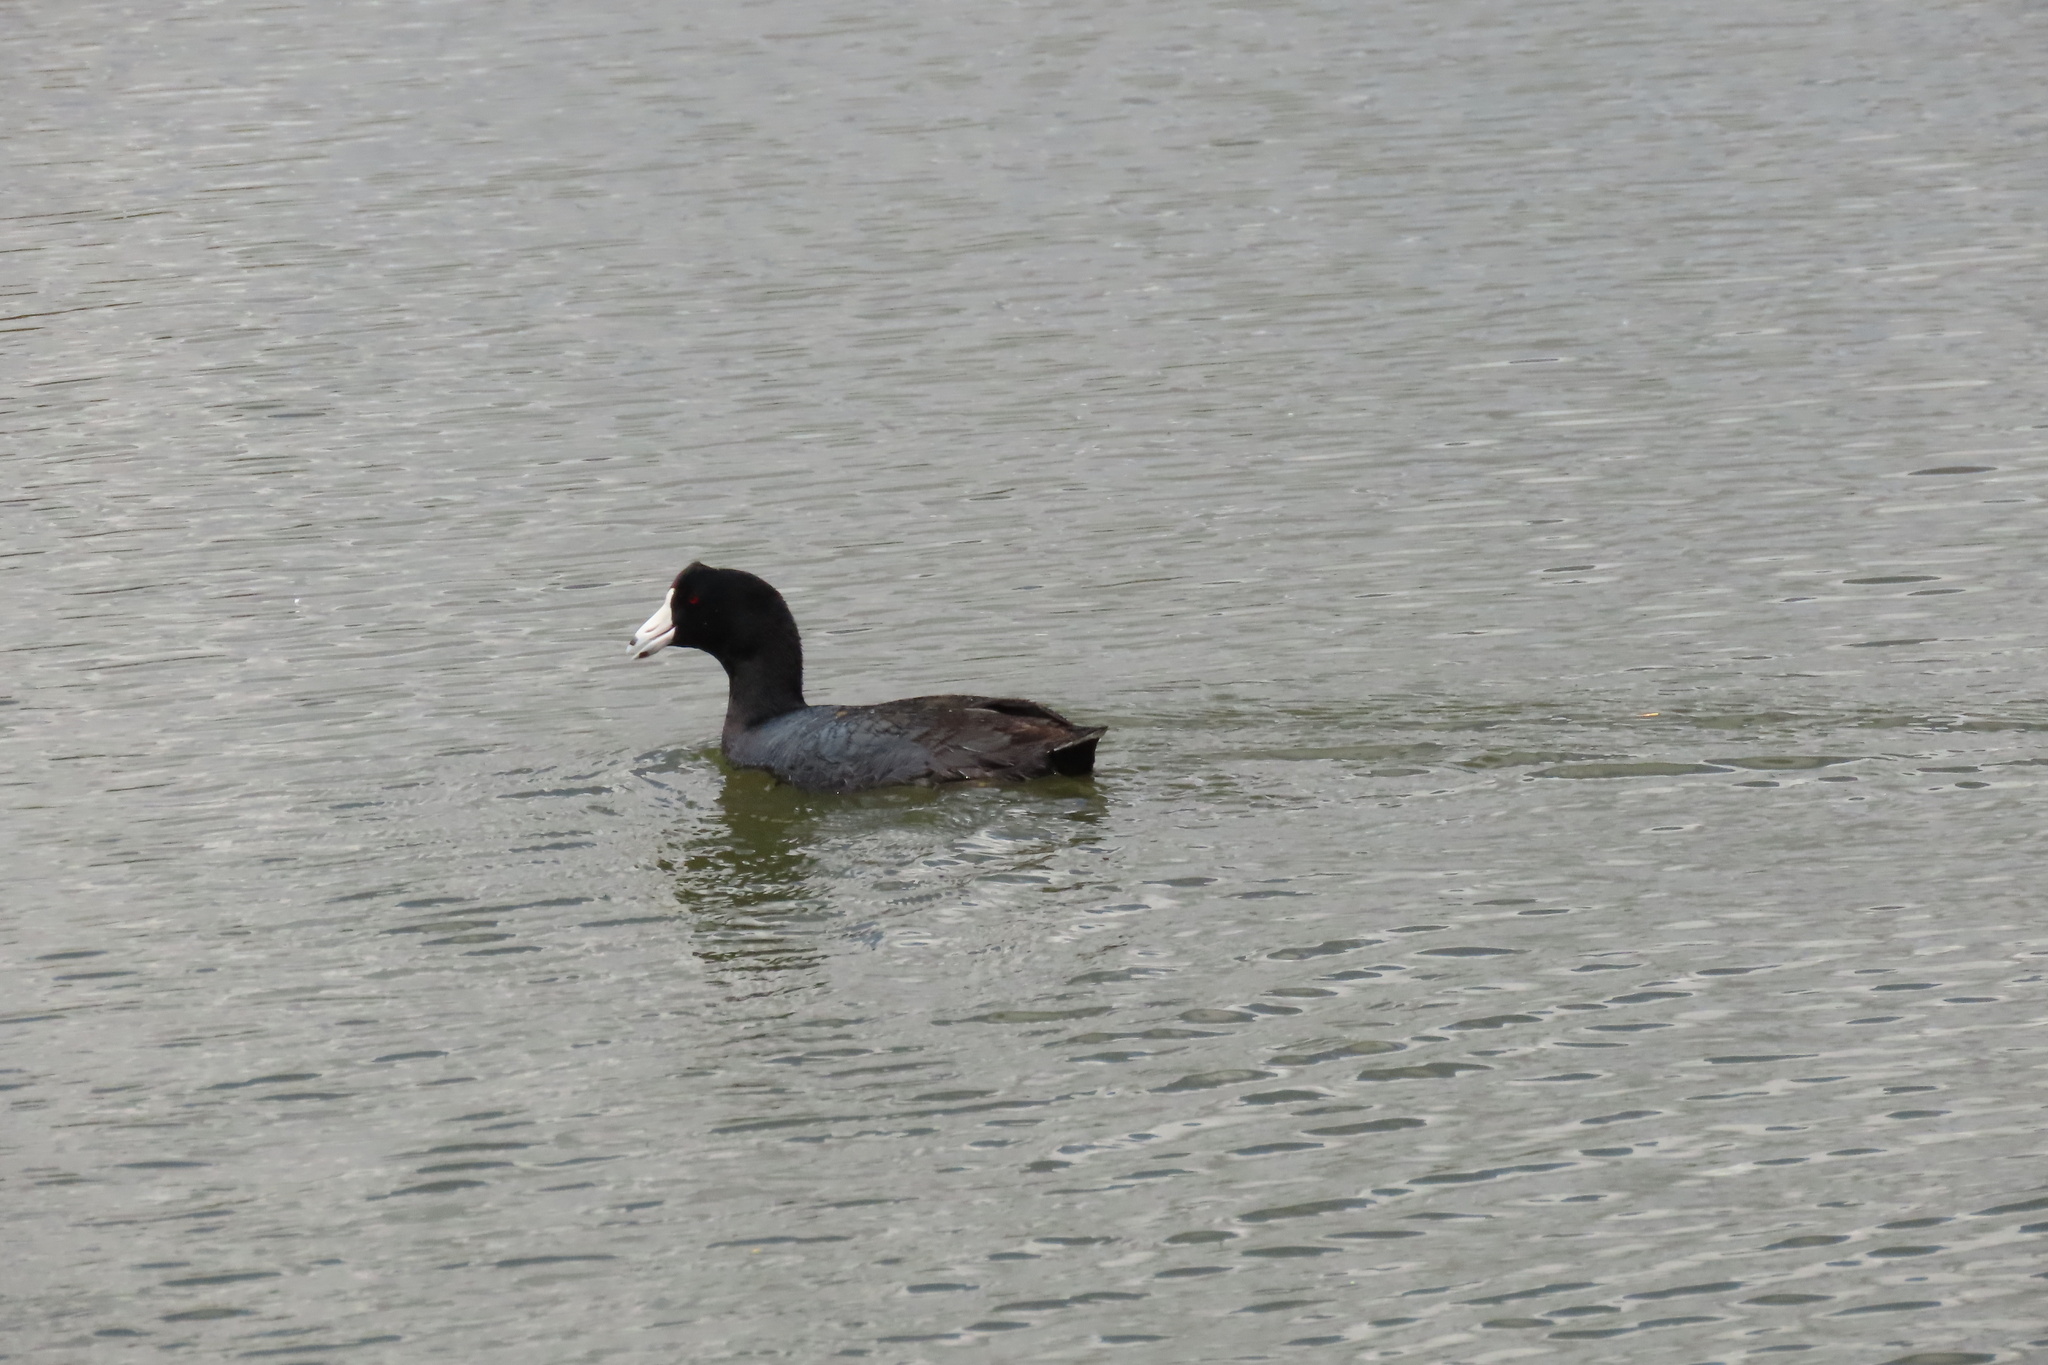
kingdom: Animalia
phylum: Chordata
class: Aves
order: Gruiformes
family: Rallidae
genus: Fulica
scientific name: Fulica americana
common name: American coot
